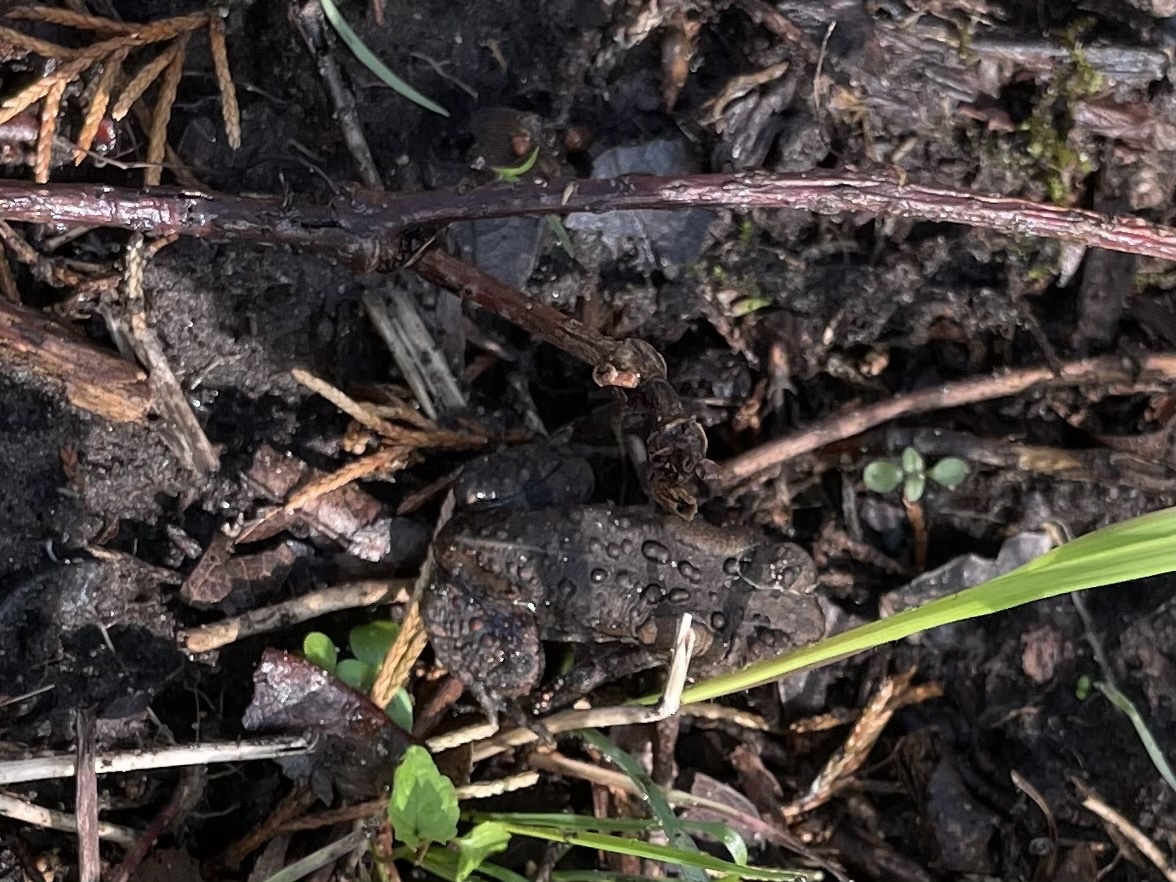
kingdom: Animalia
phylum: Chordata
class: Amphibia
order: Anura
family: Bufonidae
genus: Anaxyrus
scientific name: Anaxyrus americanus
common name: American toad
